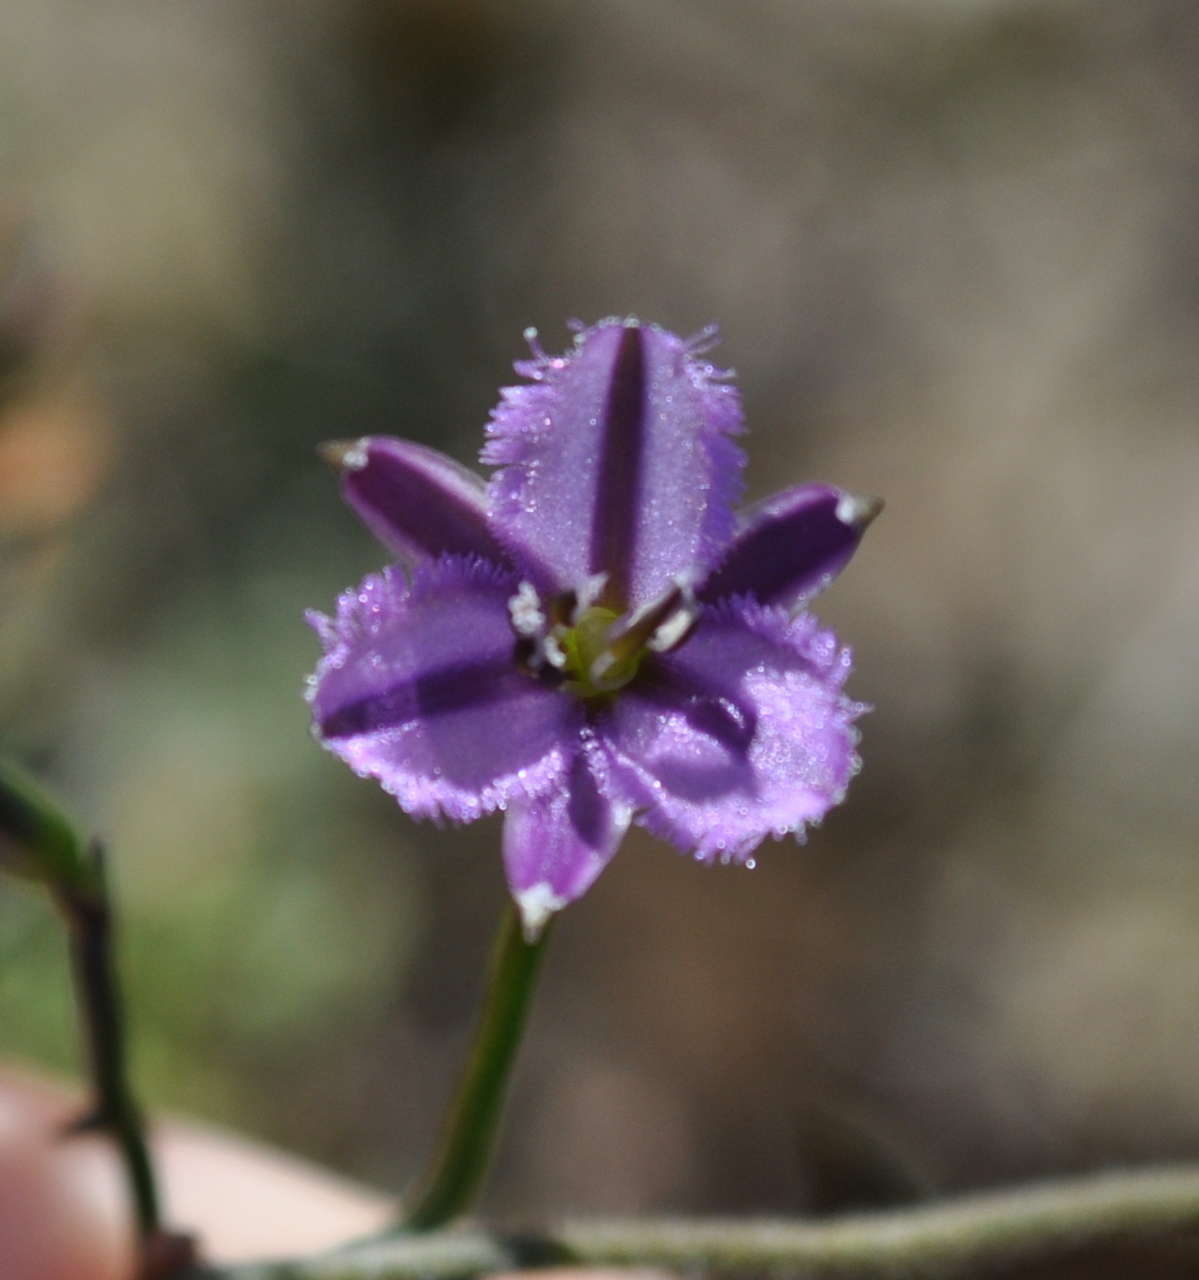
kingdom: Plantae
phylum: Tracheophyta
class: Liliopsida
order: Asparagales
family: Asparagaceae
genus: Thysanotus
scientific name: Thysanotus patersonii
